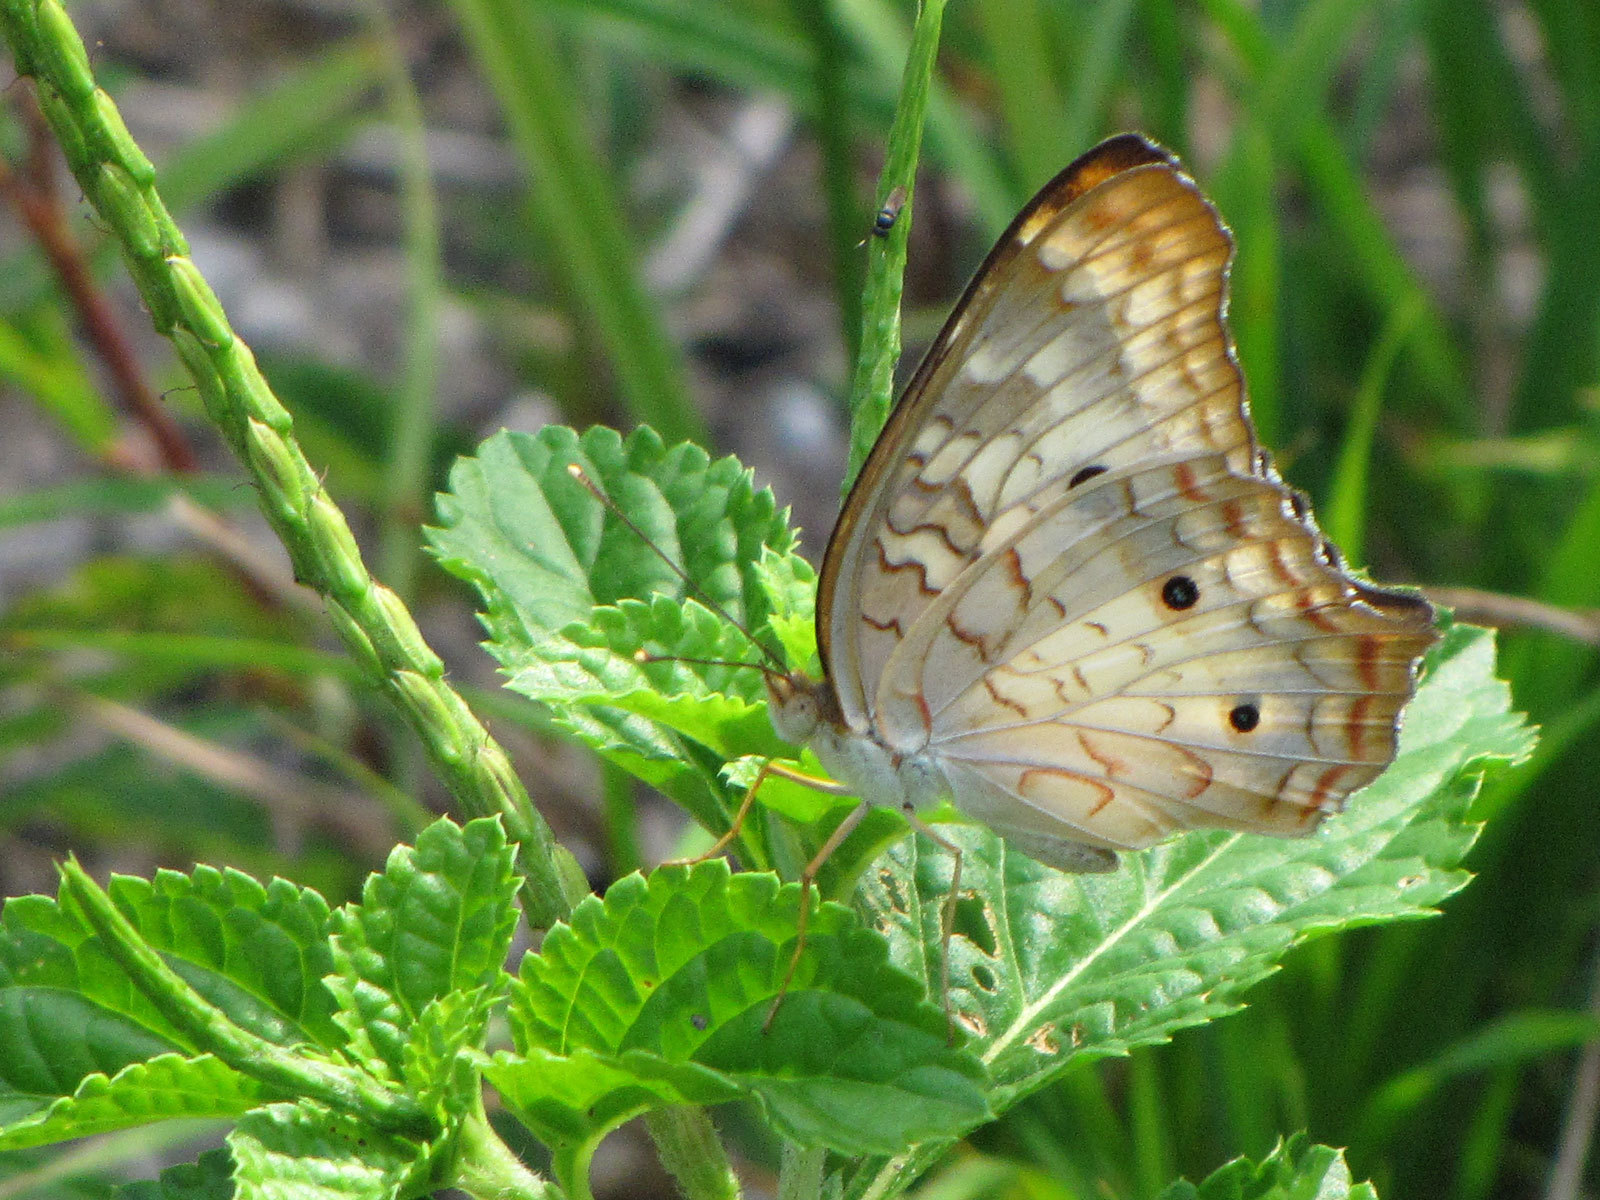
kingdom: Animalia
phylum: Arthropoda
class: Insecta
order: Lepidoptera
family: Nymphalidae
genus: Anartia
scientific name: Anartia jatrophae
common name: White peacock
